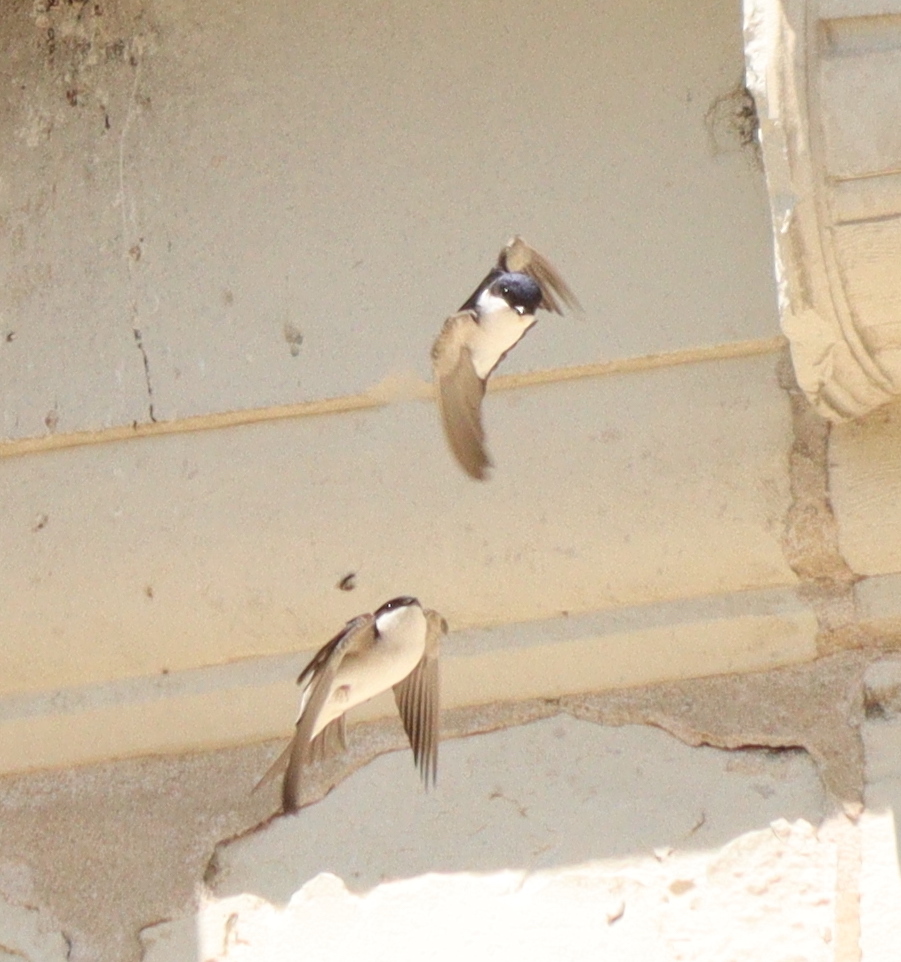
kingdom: Animalia
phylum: Chordata
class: Aves
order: Passeriformes
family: Hirundinidae
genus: Delichon
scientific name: Delichon urbicum
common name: Common house martin
